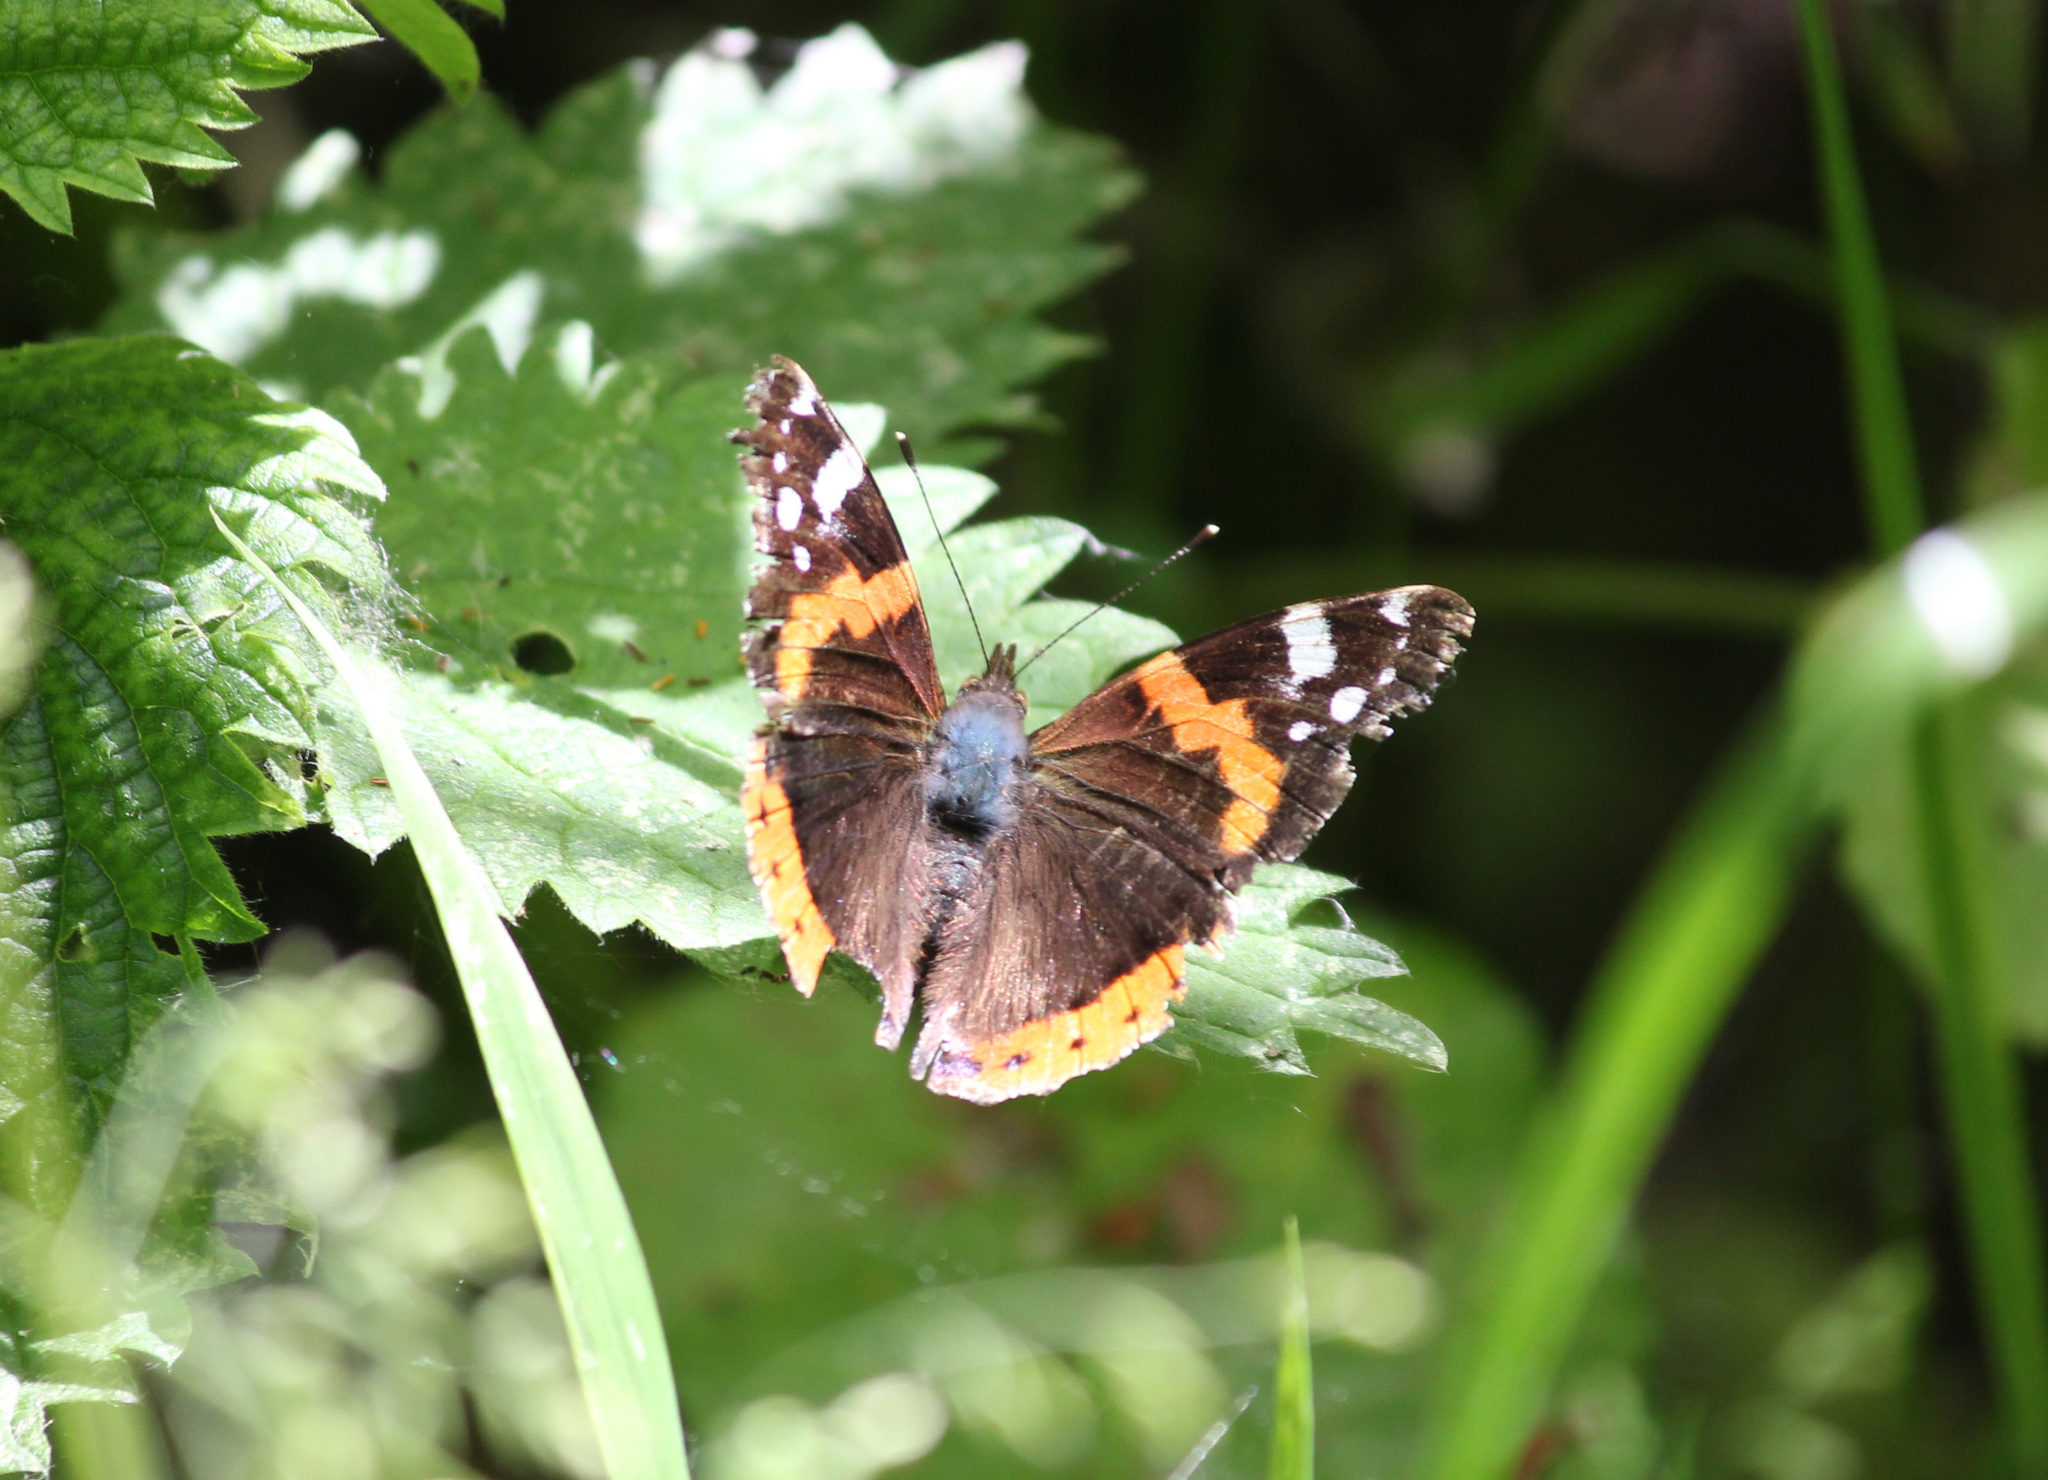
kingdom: Animalia
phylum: Arthropoda
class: Insecta
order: Lepidoptera
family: Nymphalidae
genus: Vanessa
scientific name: Vanessa atalanta
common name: Red admiral
